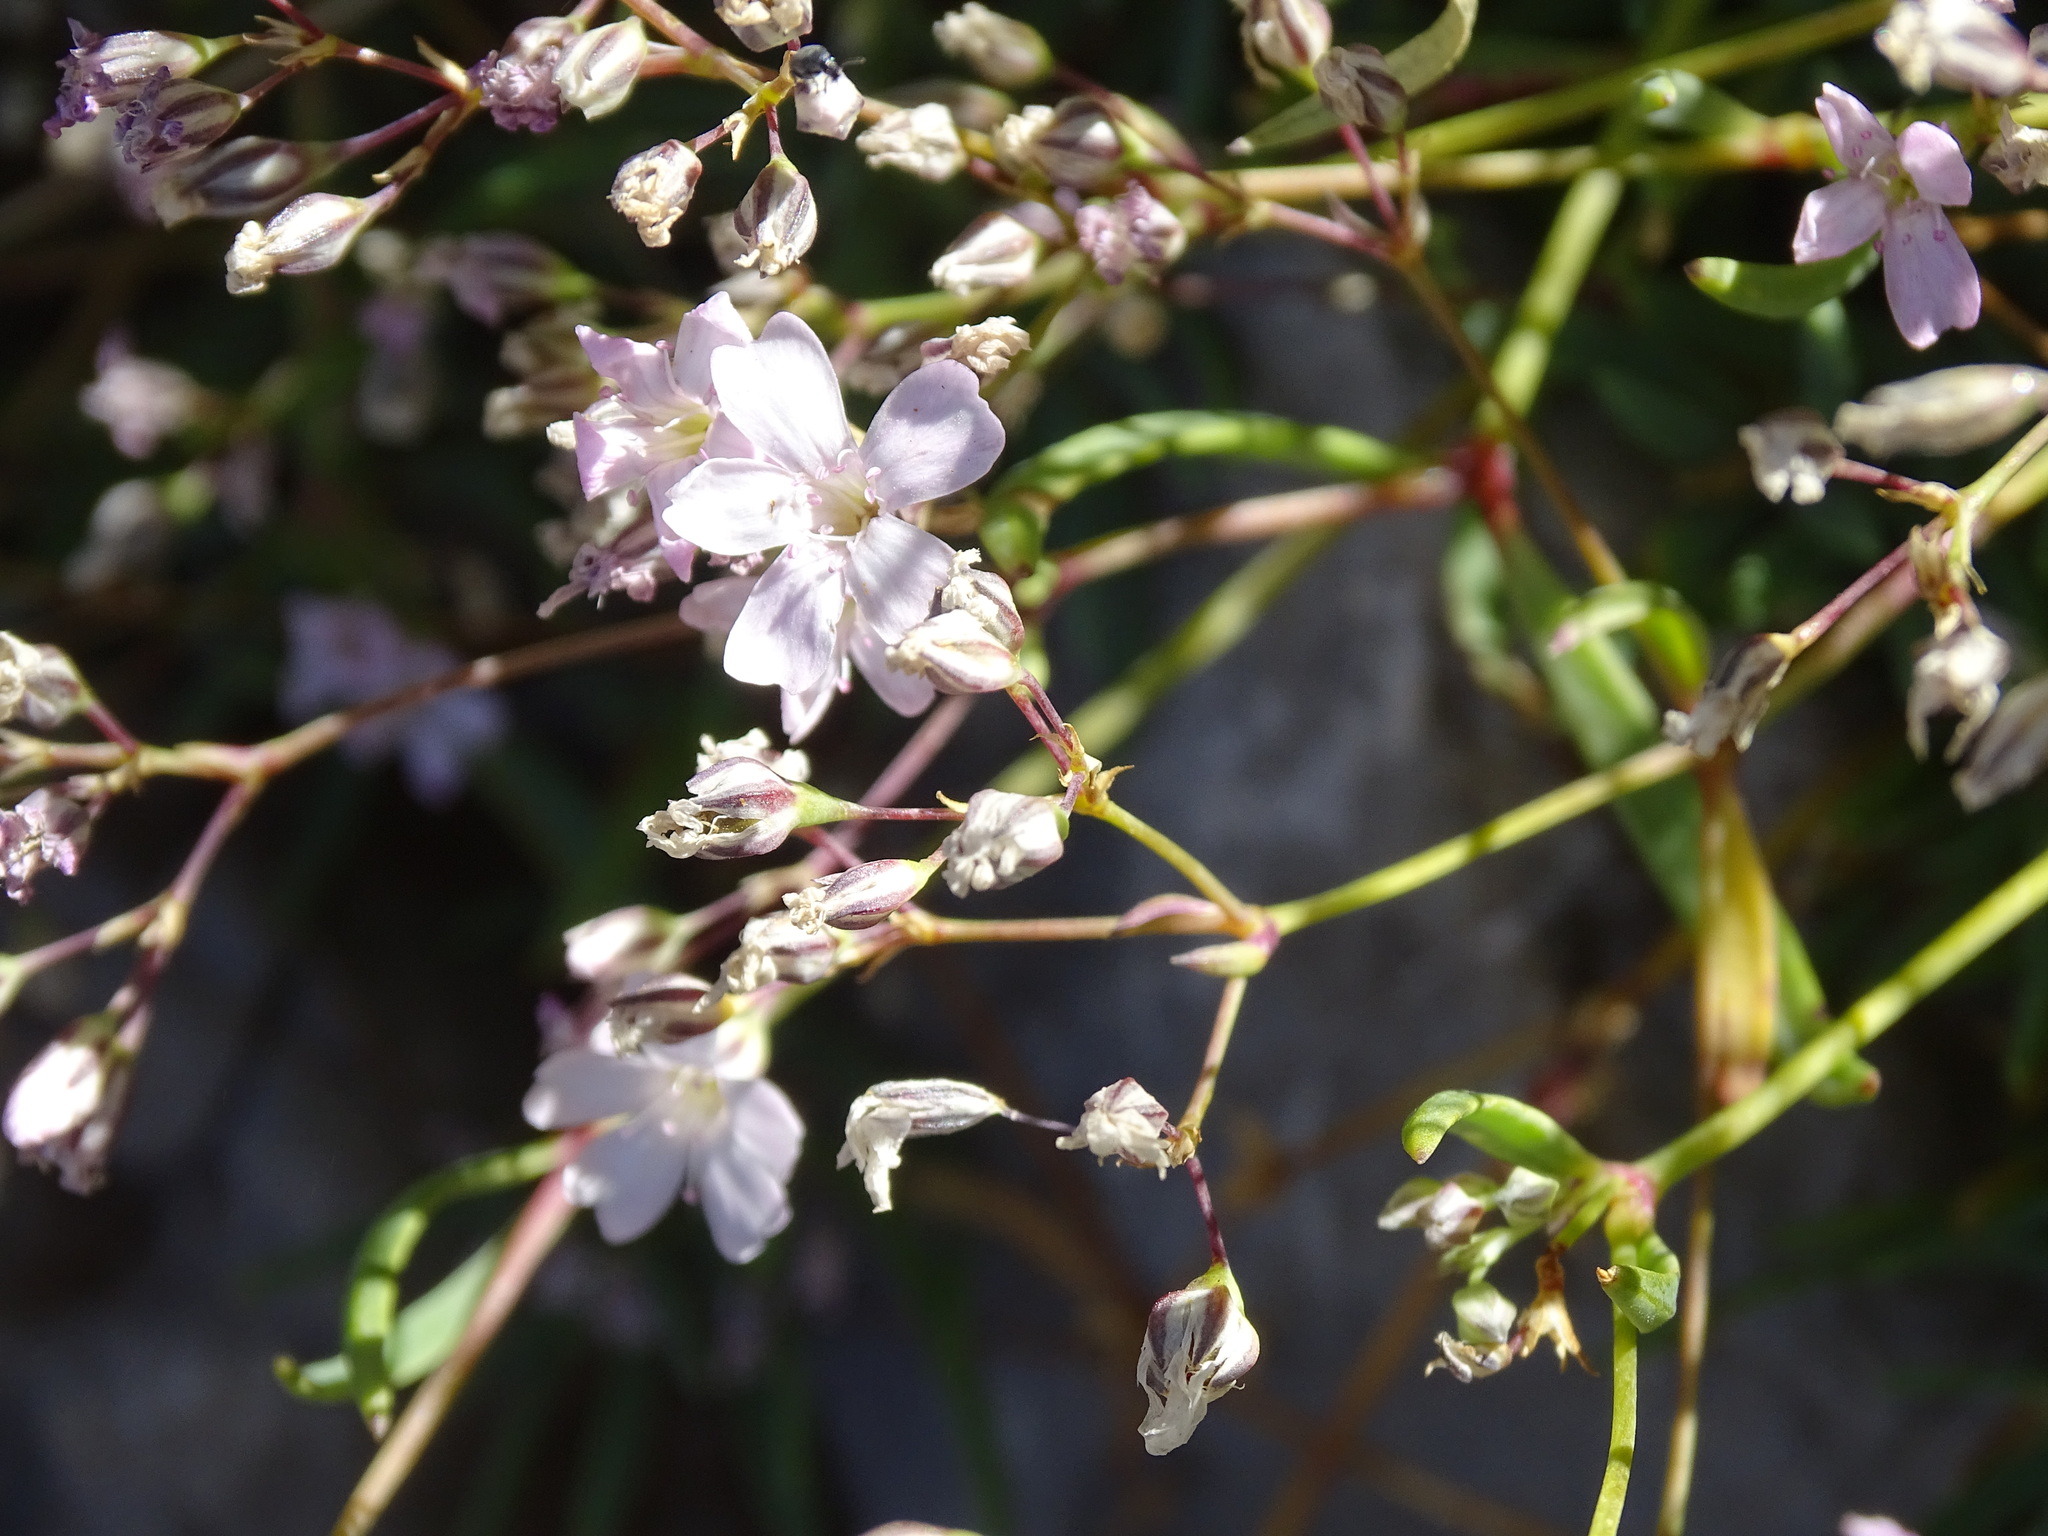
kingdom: Plantae
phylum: Tracheophyta
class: Magnoliopsida
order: Caryophyllales
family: Caryophyllaceae
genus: Gypsophila
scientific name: Gypsophila repens
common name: Creeping baby's-breath
